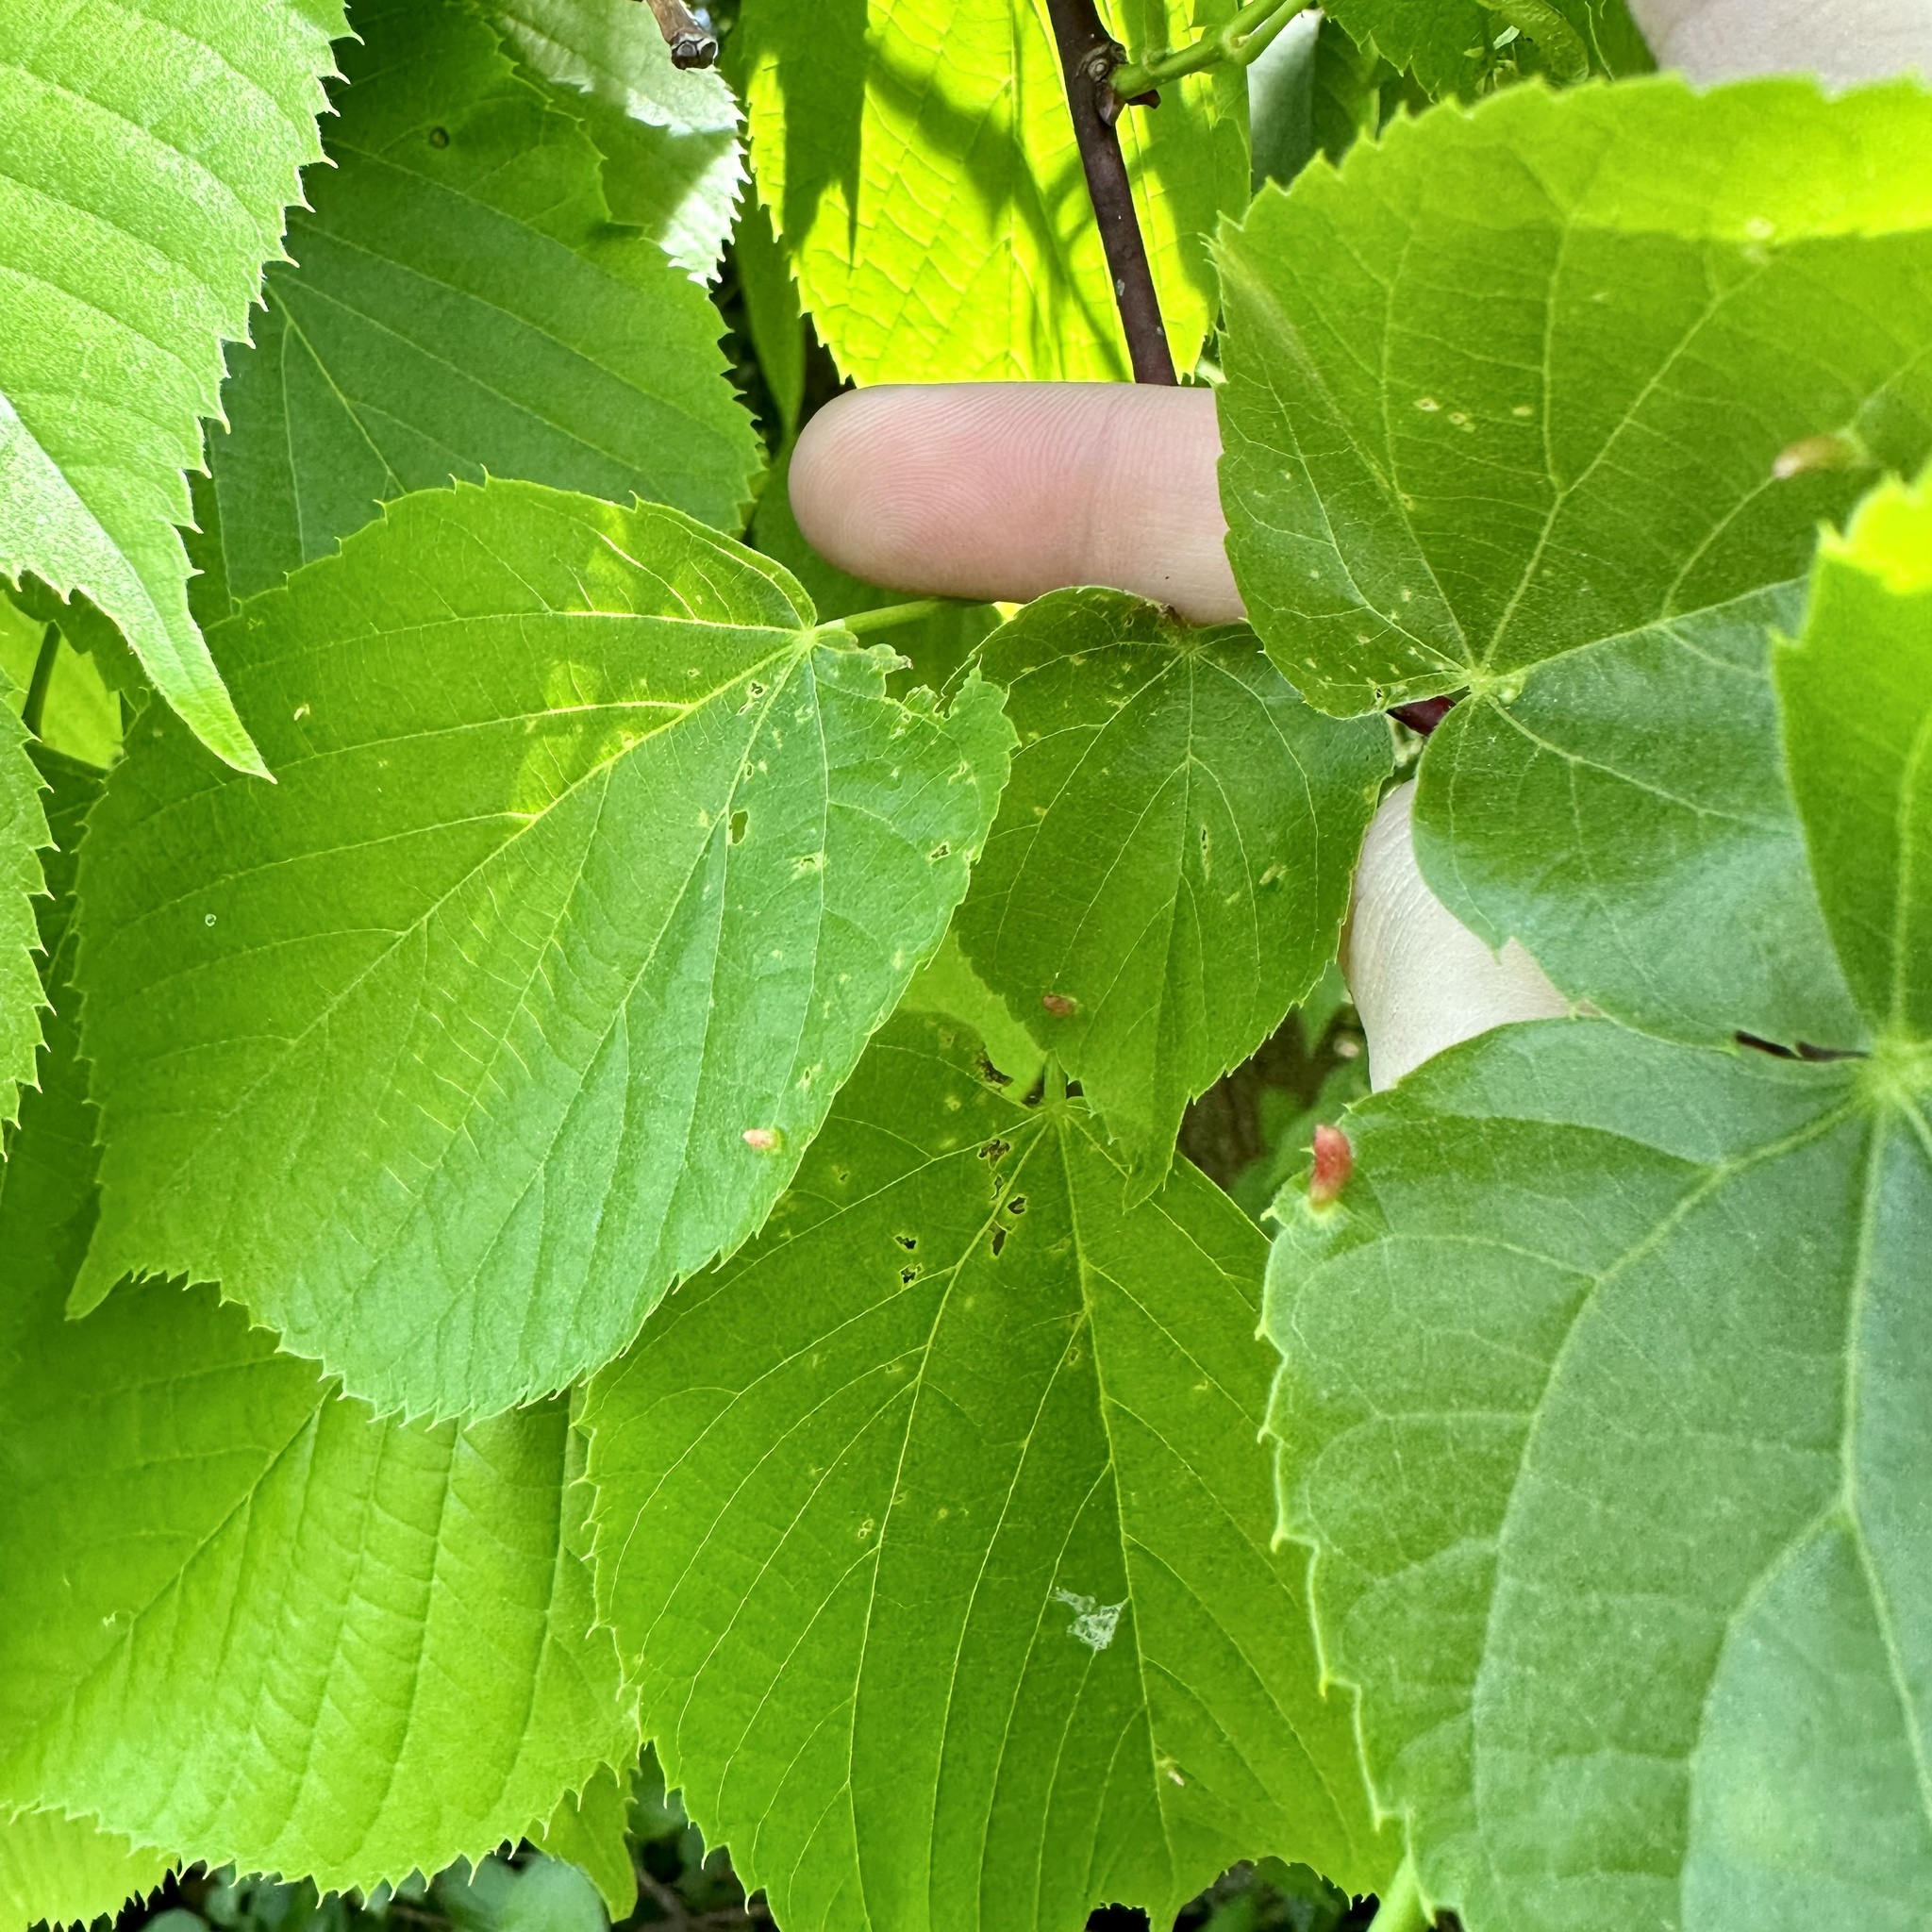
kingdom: Animalia
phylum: Arthropoda
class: Arachnida
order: Trombidiformes
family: Eriophyidae
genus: Eriophyes
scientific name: Eriophyes tiliae
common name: Red nail gall mite
